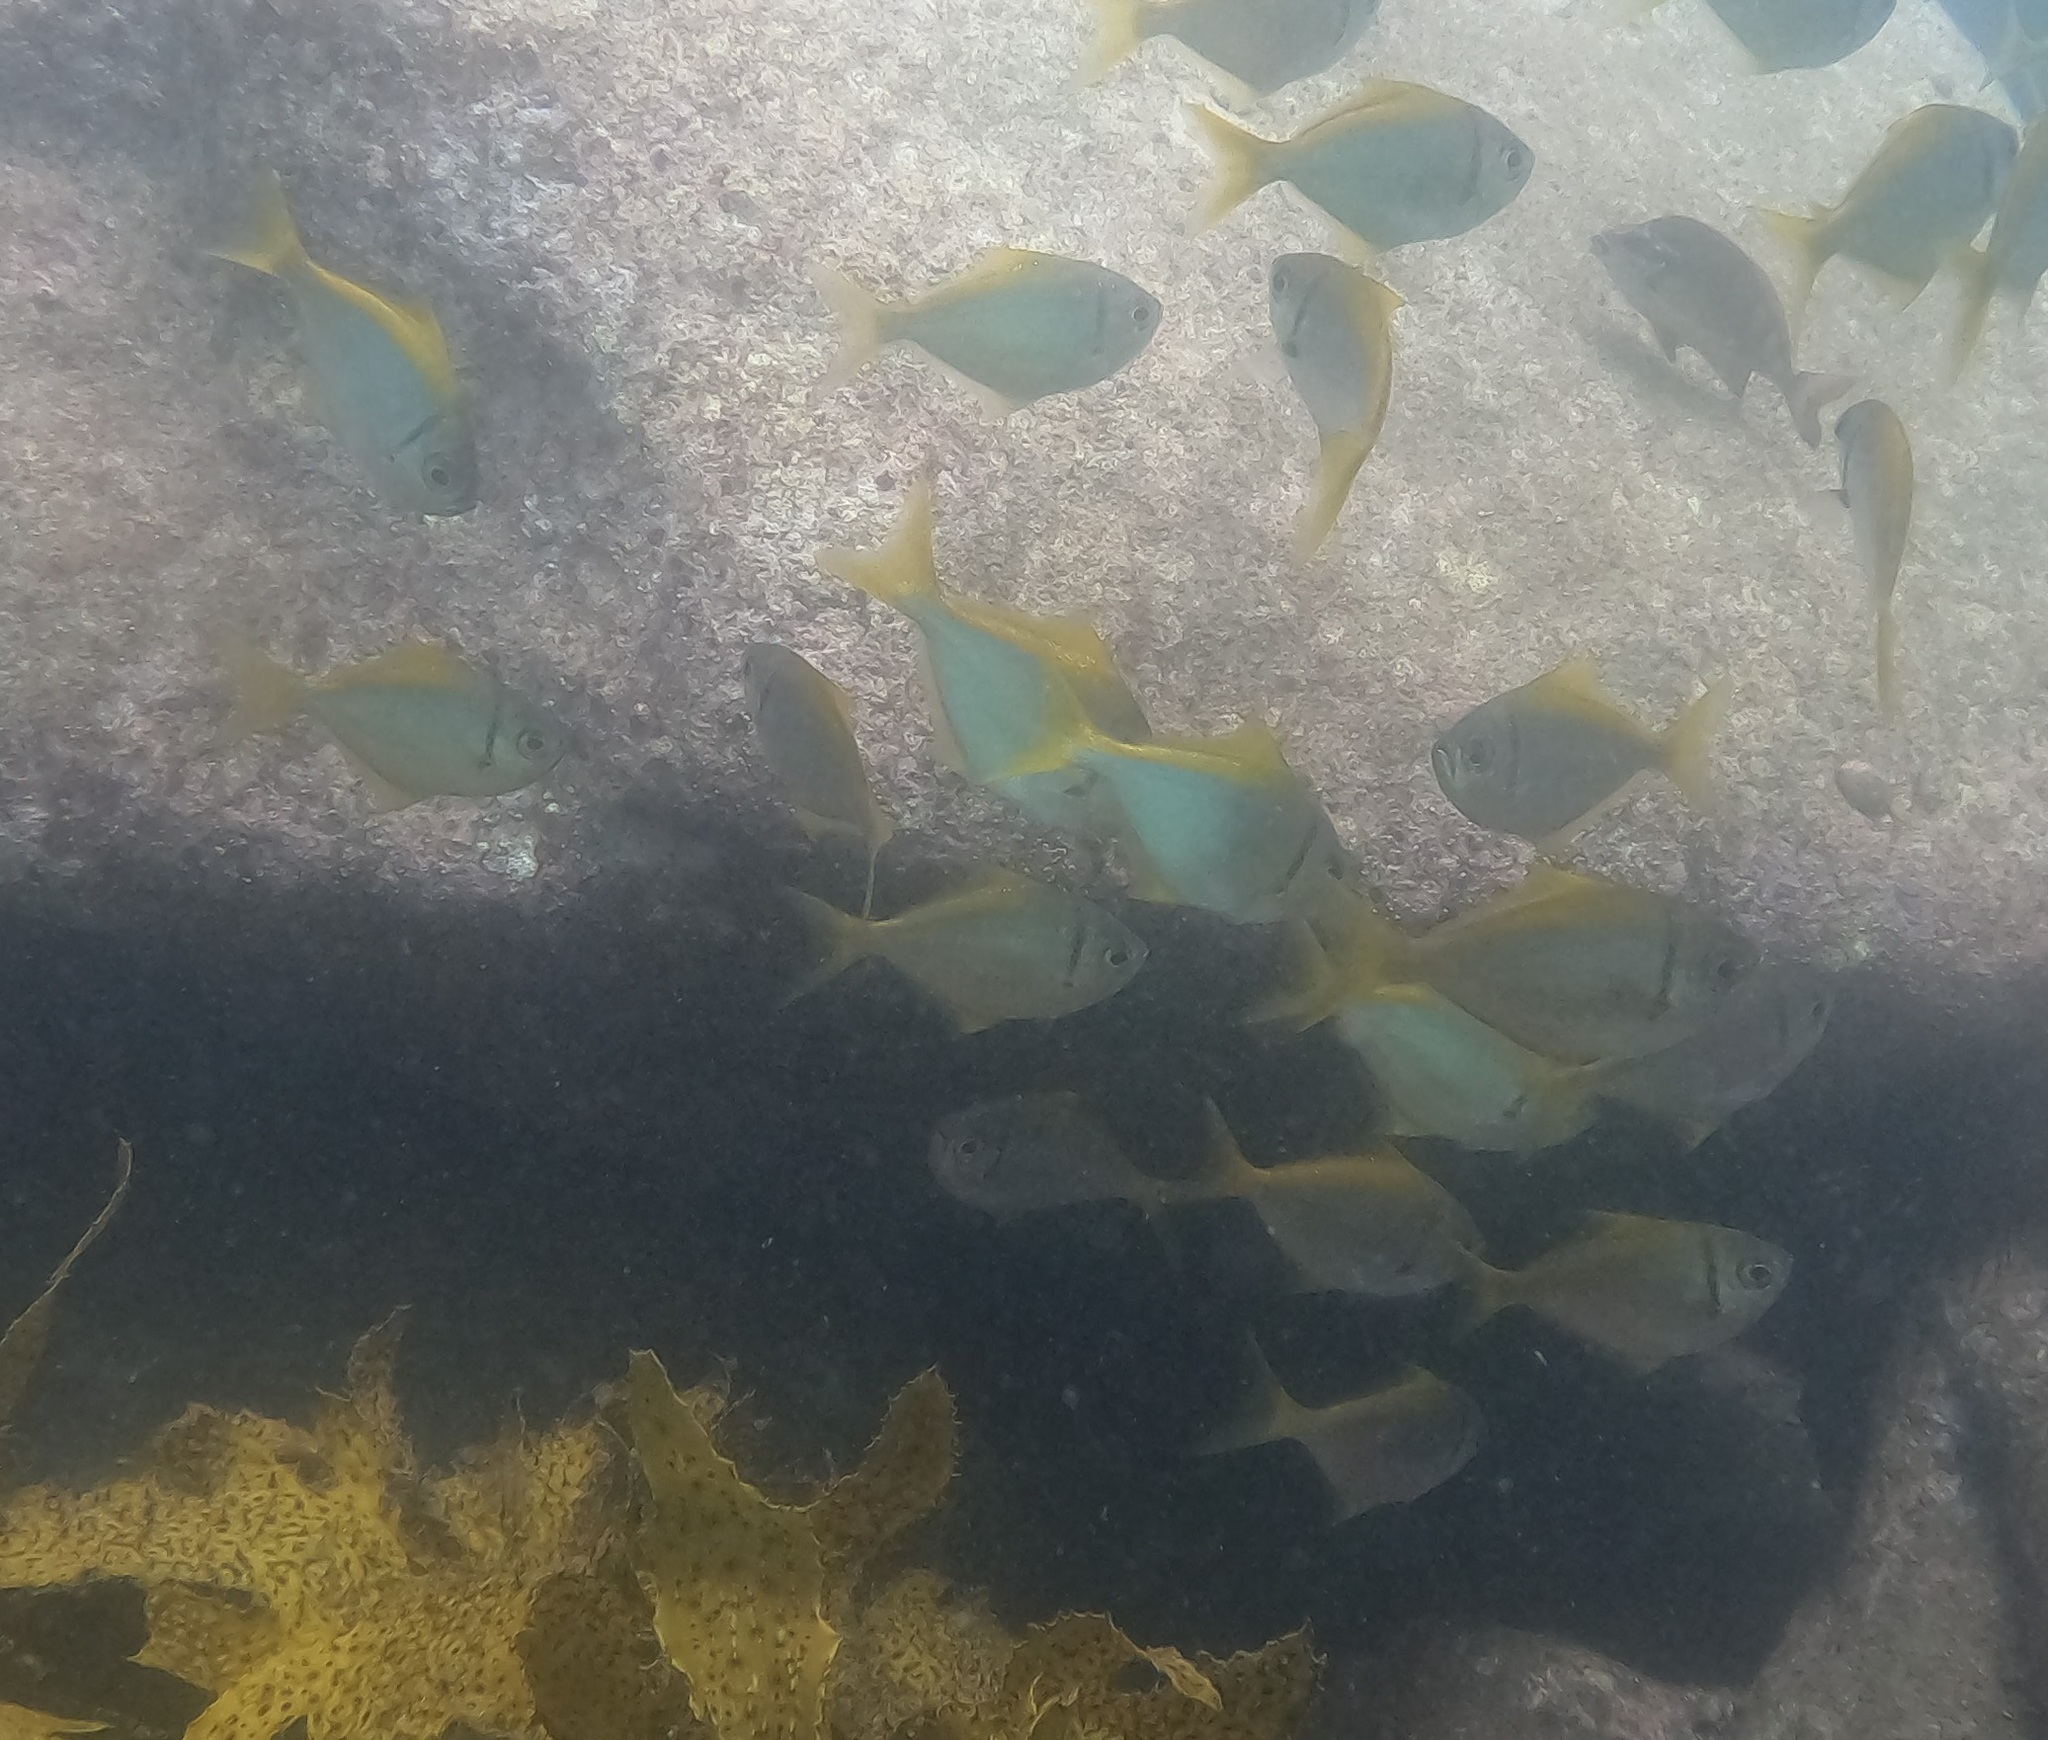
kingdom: Animalia
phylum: Chordata
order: Perciformes
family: Monodactylidae
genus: Schuettea
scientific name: Schuettea scalaripinnis
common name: Eastern pomfred
